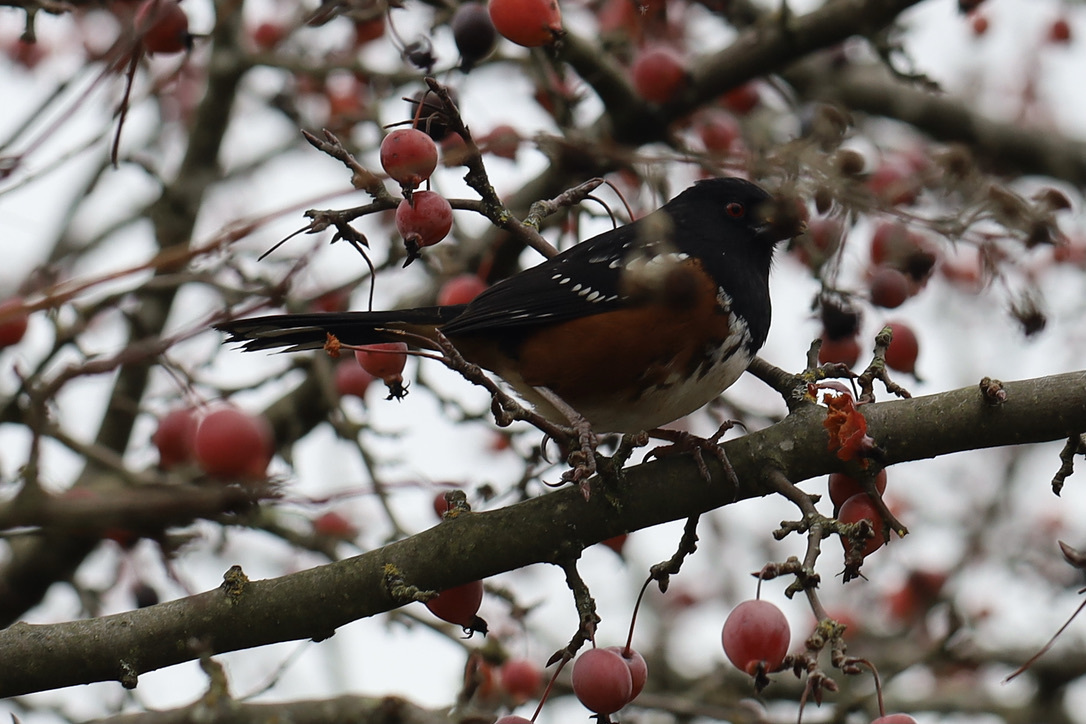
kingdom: Animalia
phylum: Chordata
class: Aves
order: Passeriformes
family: Passerellidae
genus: Pipilo
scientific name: Pipilo maculatus
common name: Spotted towhee
